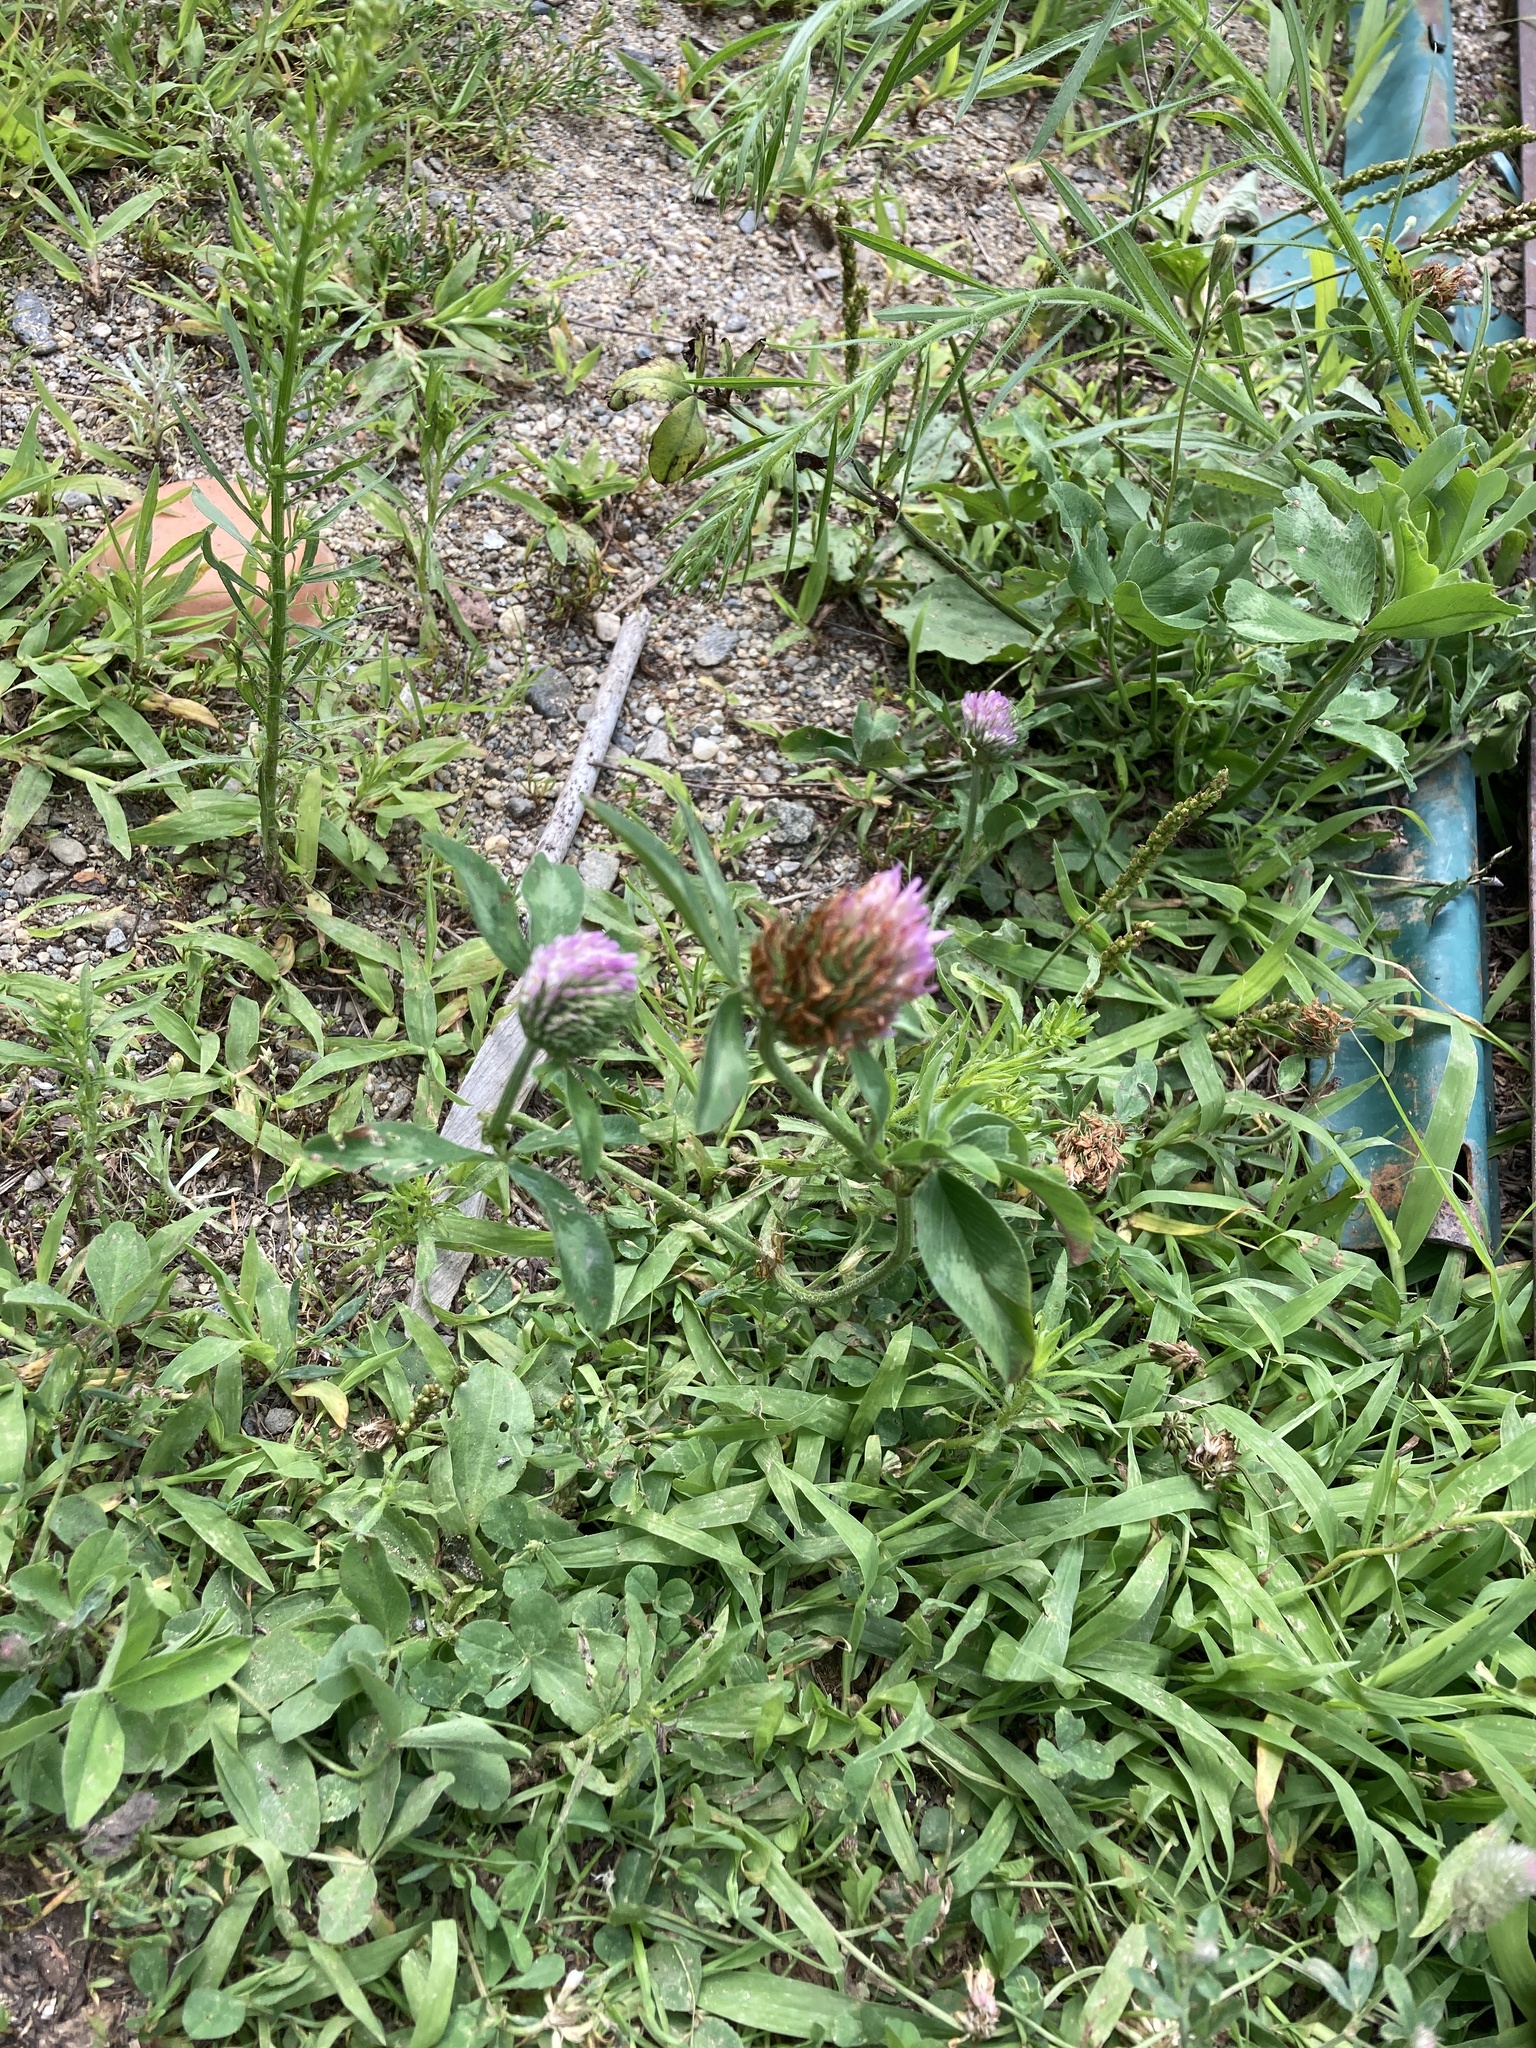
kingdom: Plantae
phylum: Tracheophyta
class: Magnoliopsida
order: Fabales
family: Fabaceae
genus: Trifolium
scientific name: Trifolium pratense
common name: Red clover
